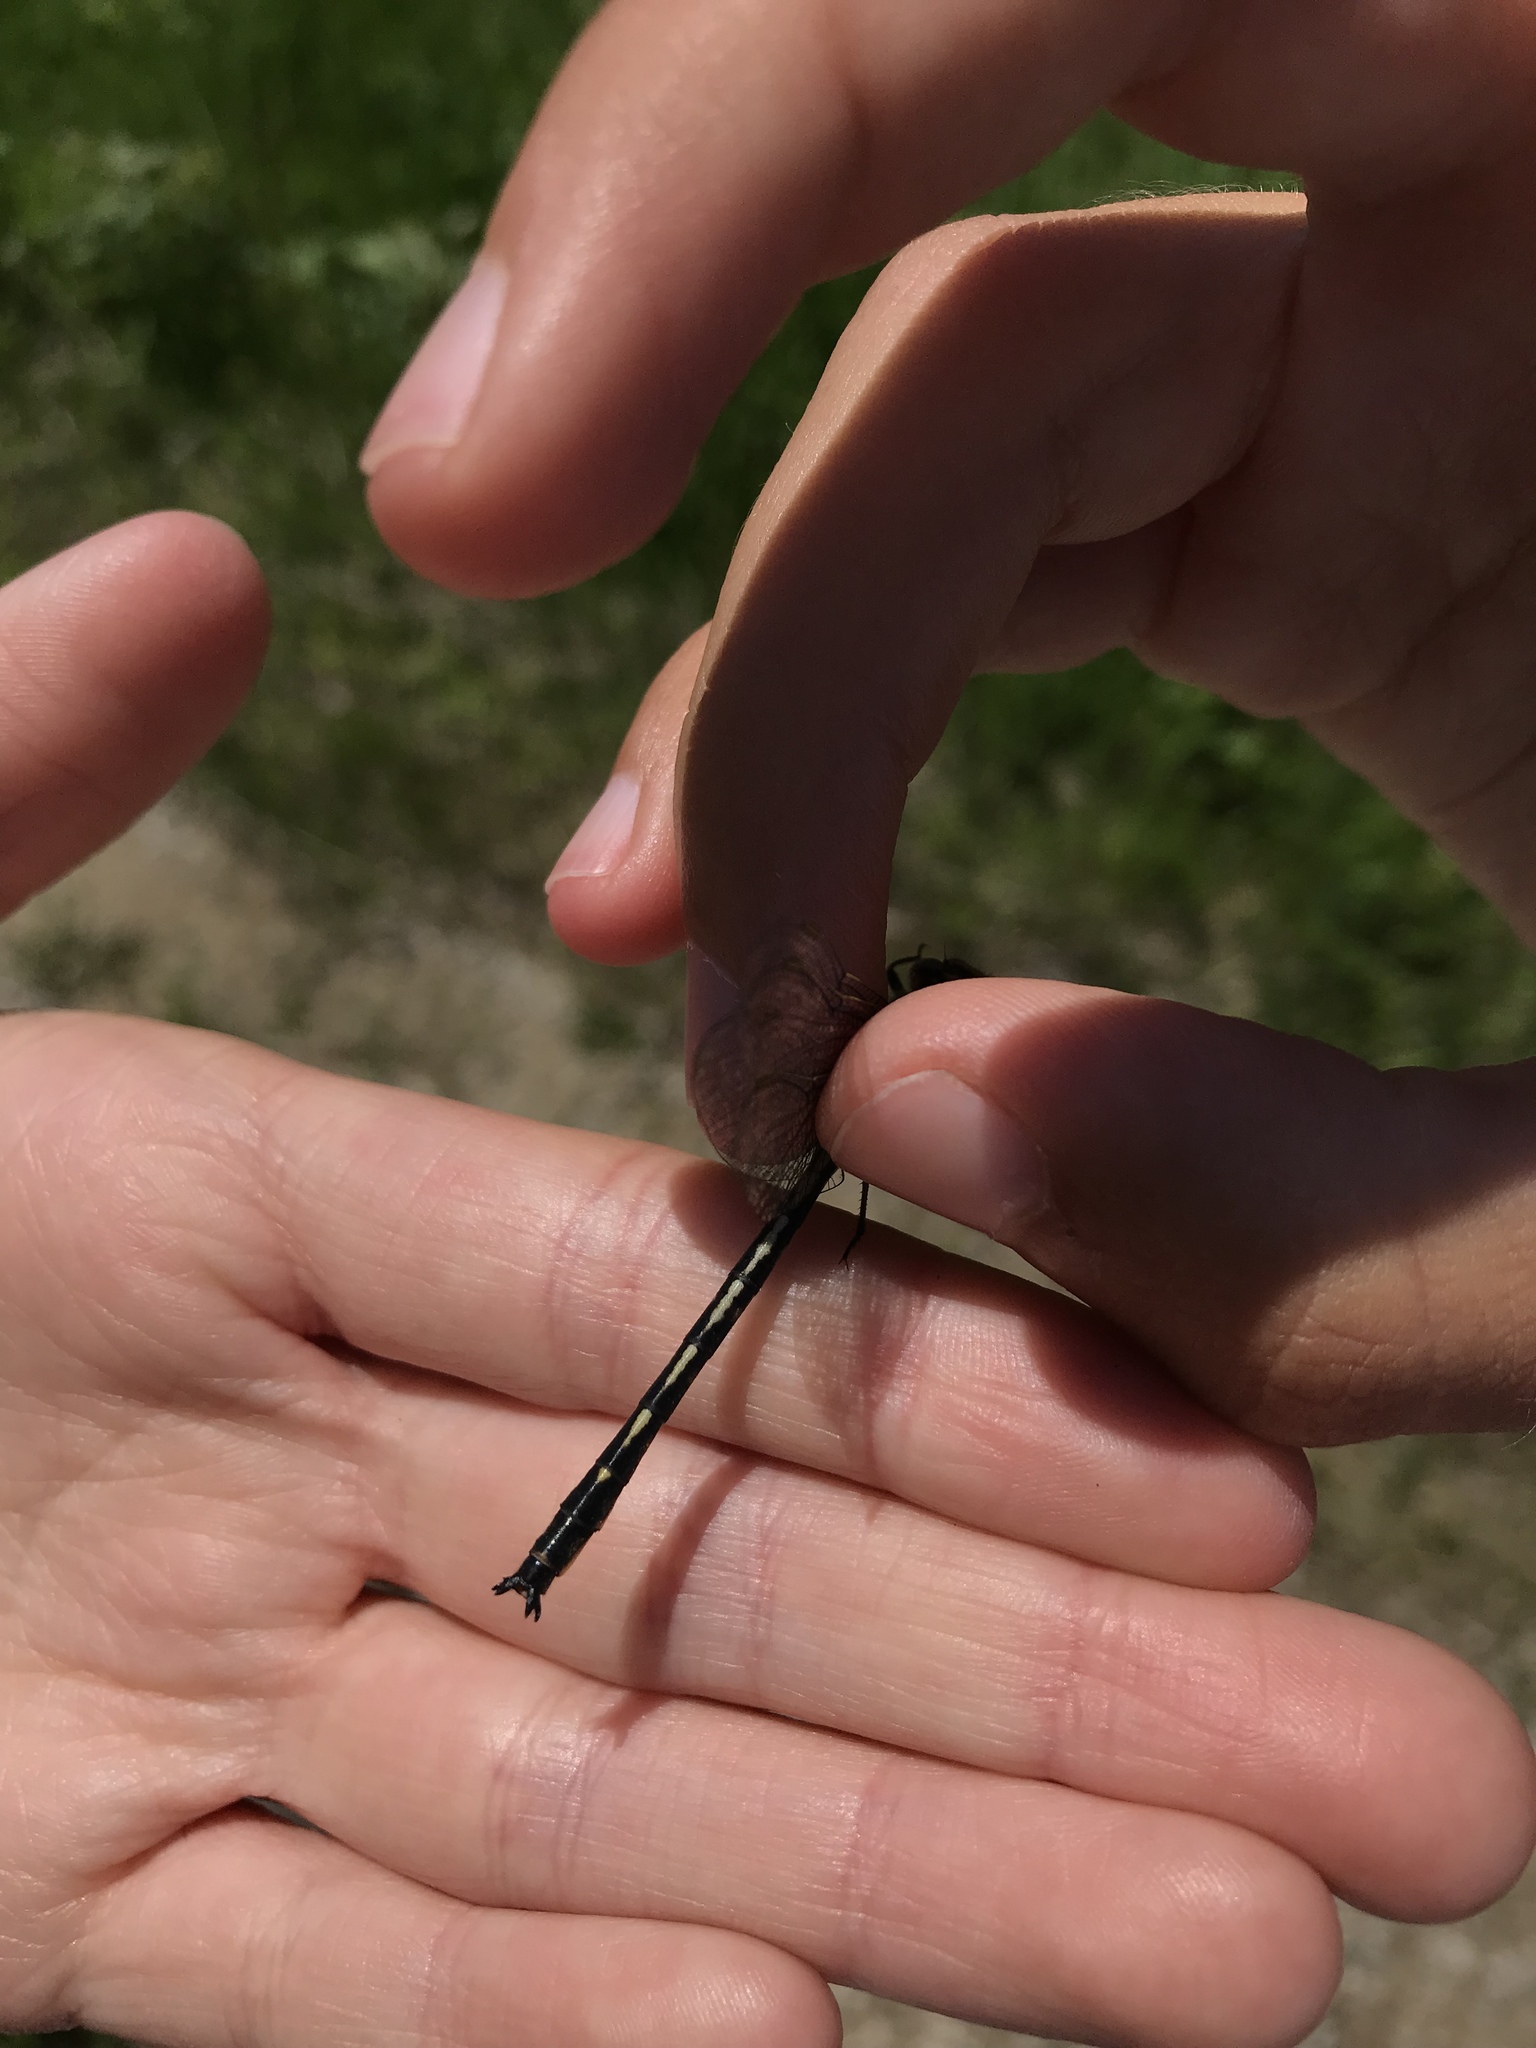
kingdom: Animalia
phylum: Arthropoda
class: Insecta
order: Odonata
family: Gomphidae
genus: Phanogomphus
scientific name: Phanogomphus spicatus
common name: Dusky clubtail
